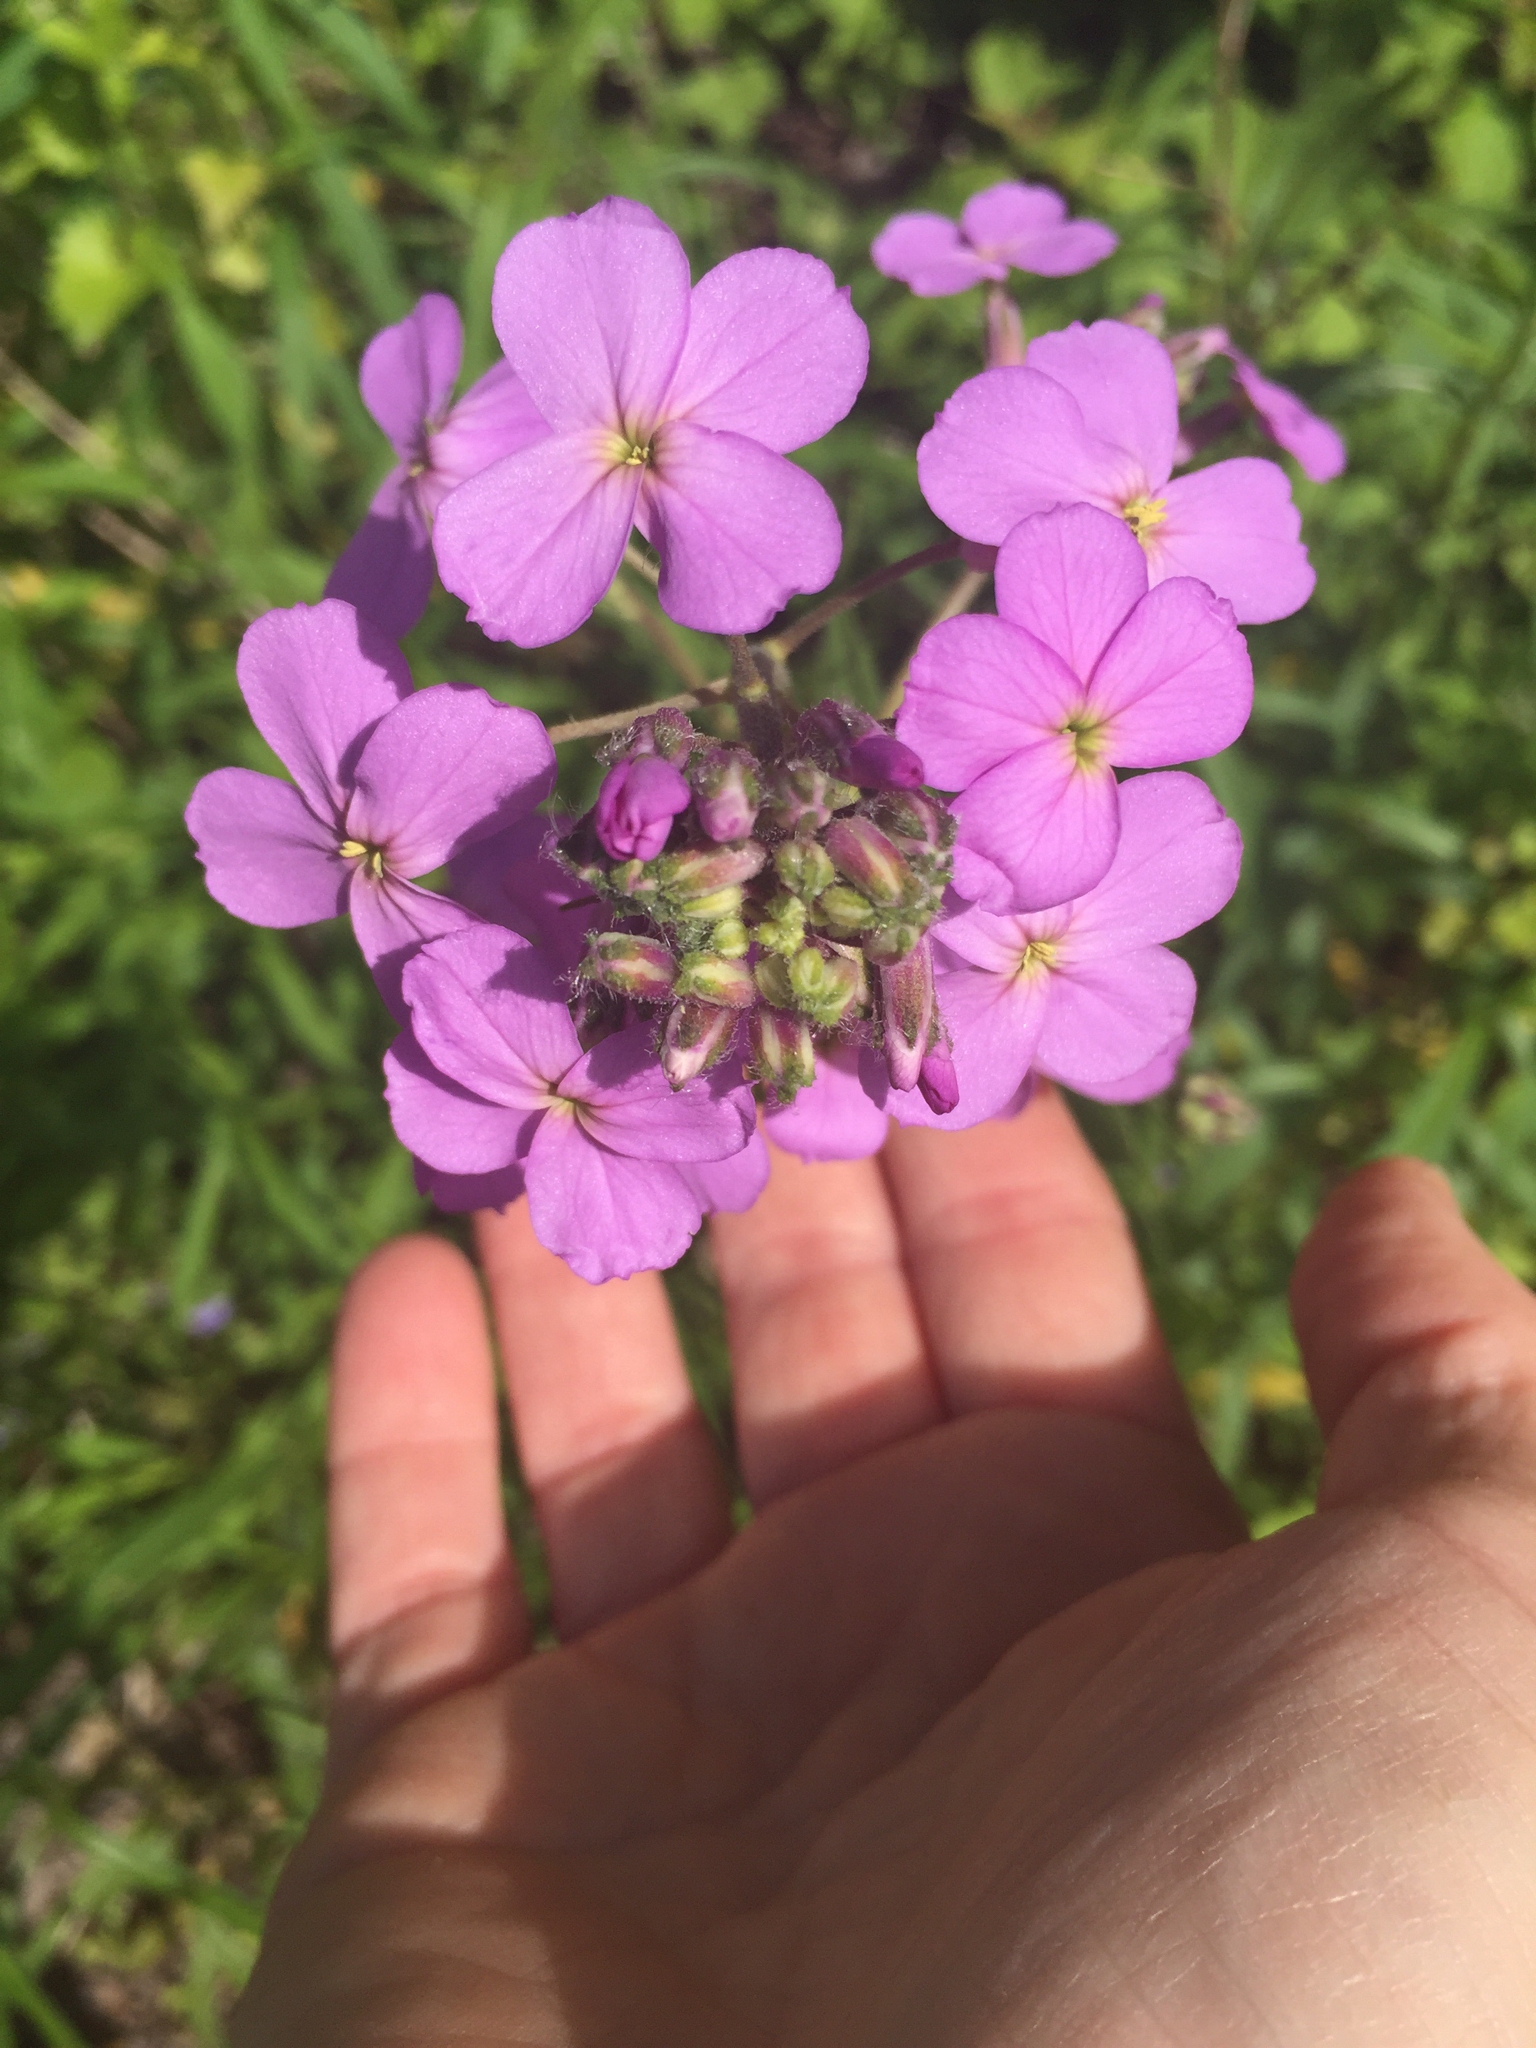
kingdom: Plantae
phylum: Tracheophyta
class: Magnoliopsida
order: Brassicales
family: Brassicaceae
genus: Hesperis
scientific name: Hesperis matronalis
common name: Dame's-violet
